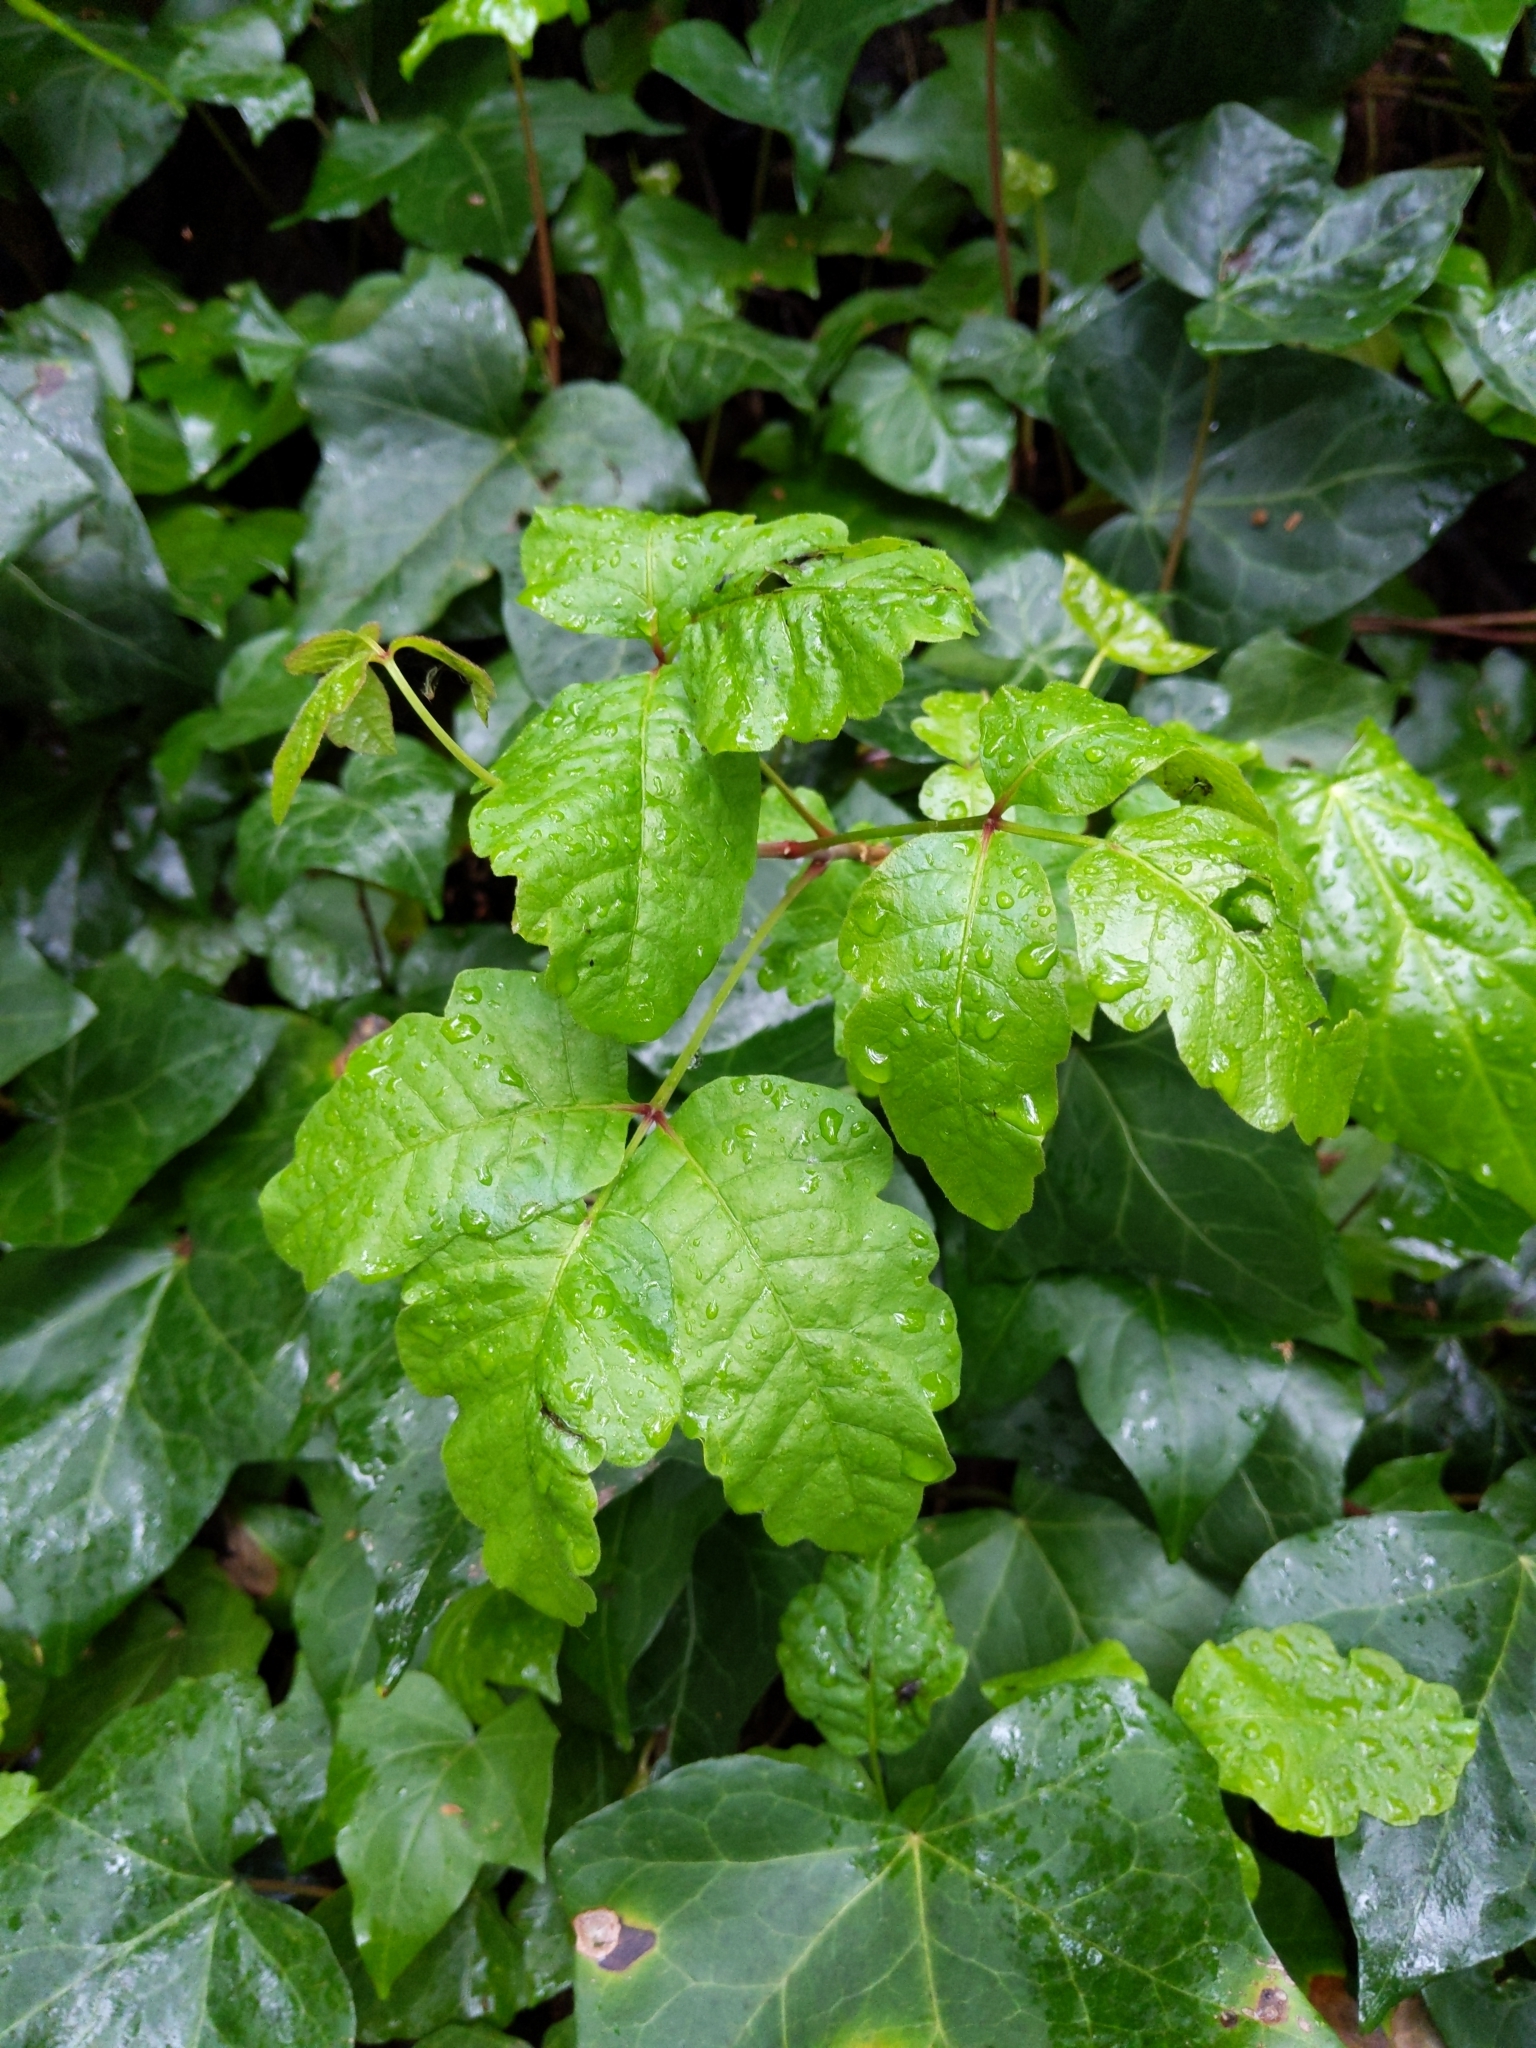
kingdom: Plantae
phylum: Tracheophyta
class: Magnoliopsida
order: Sapindales
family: Anacardiaceae
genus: Toxicodendron
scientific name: Toxicodendron diversilobum
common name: Pacific poison-oak
